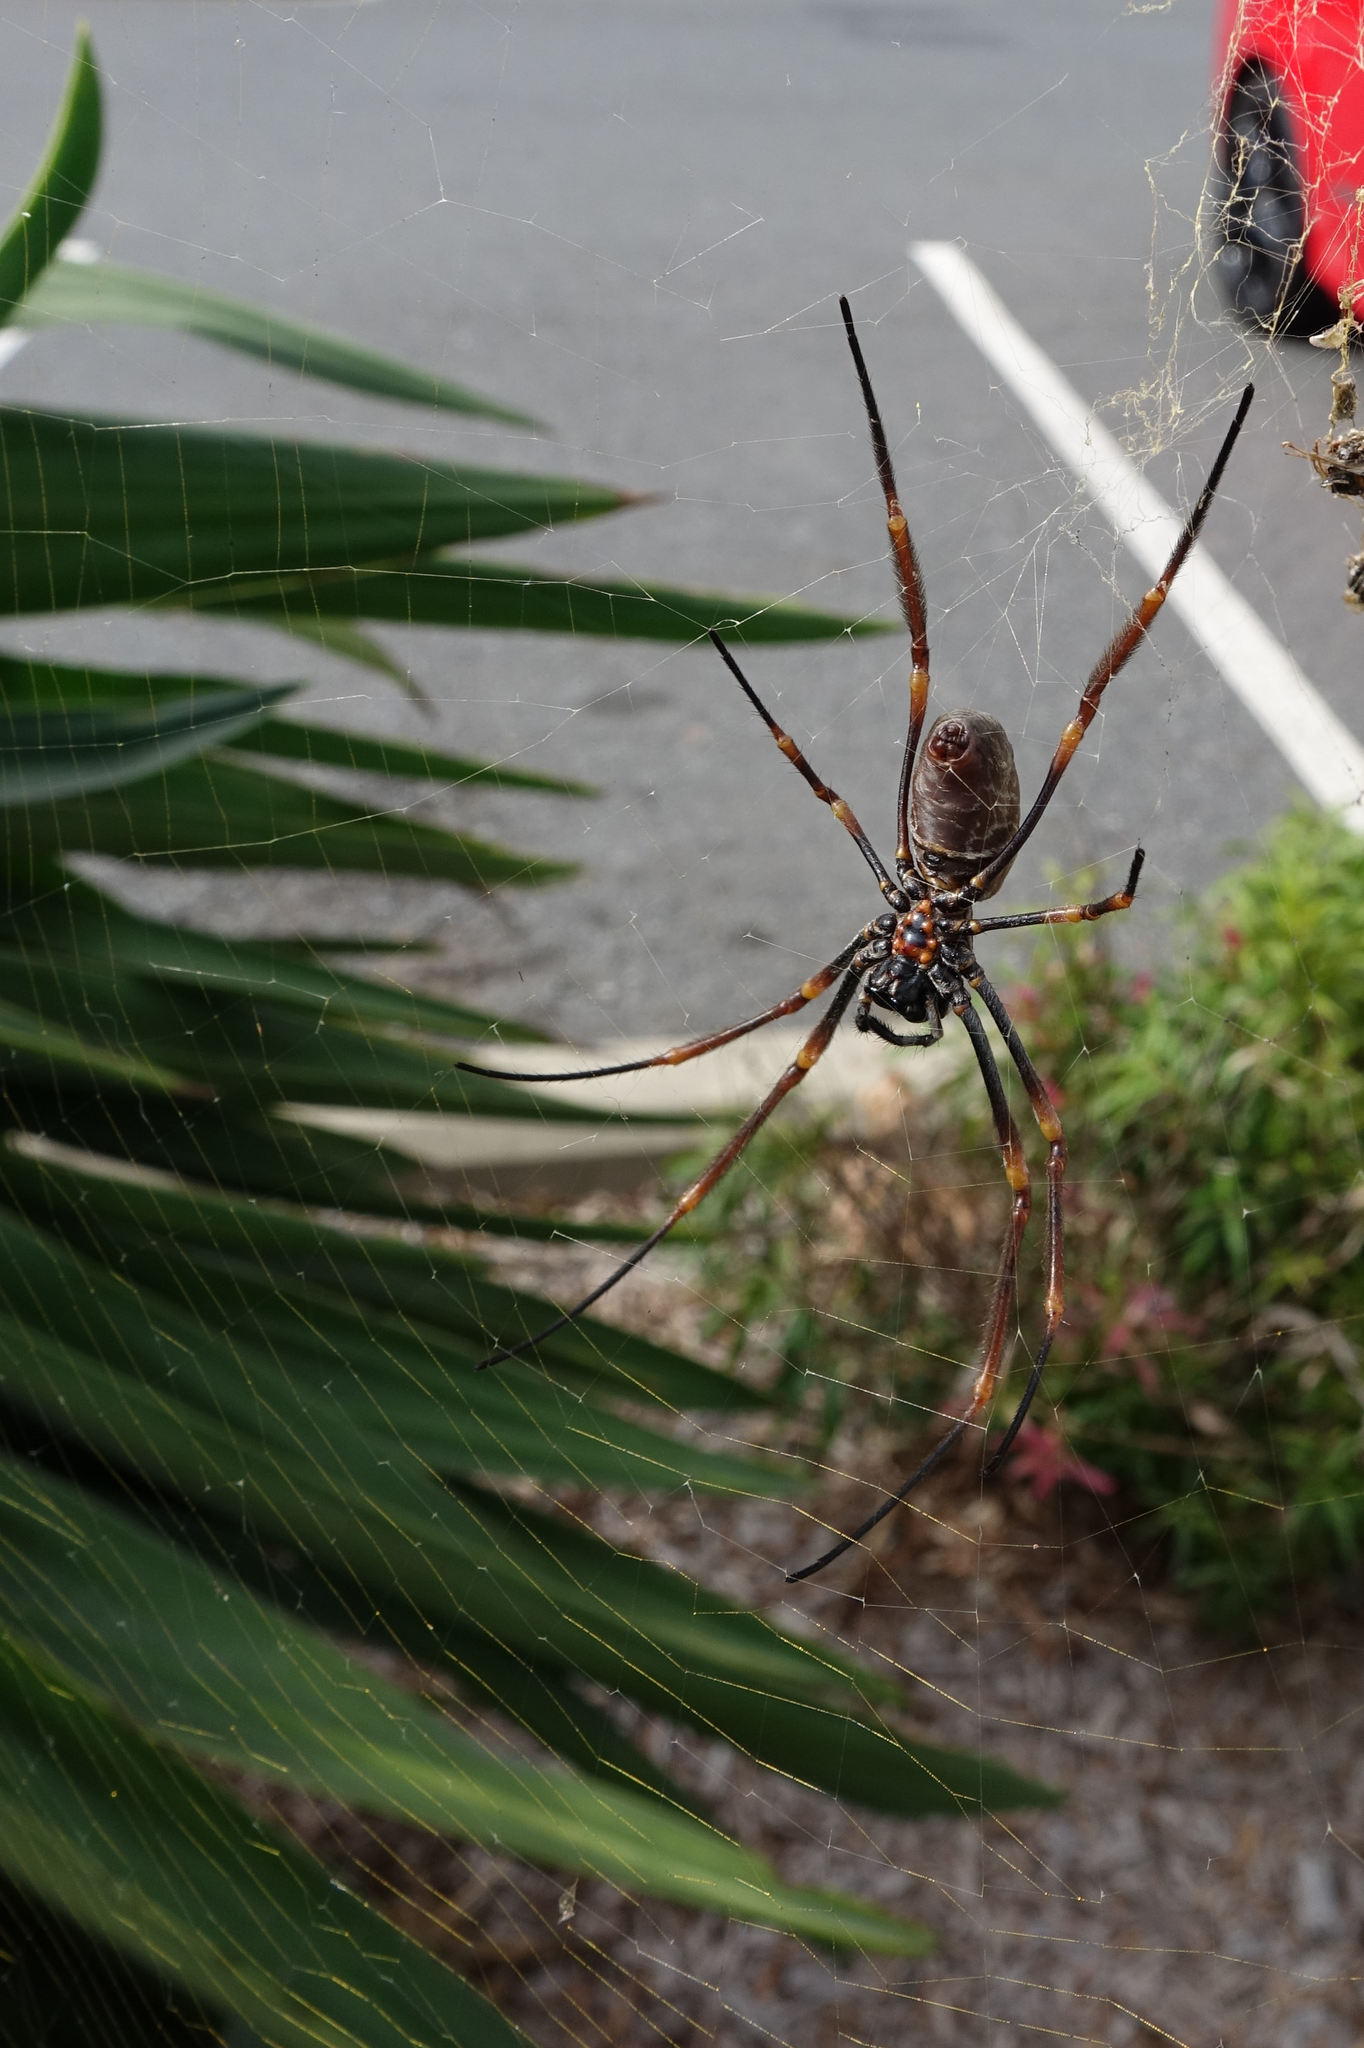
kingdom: Animalia
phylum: Arthropoda
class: Arachnida
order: Araneae
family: Araneidae
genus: Trichonephila
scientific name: Trichonephila plumipes
